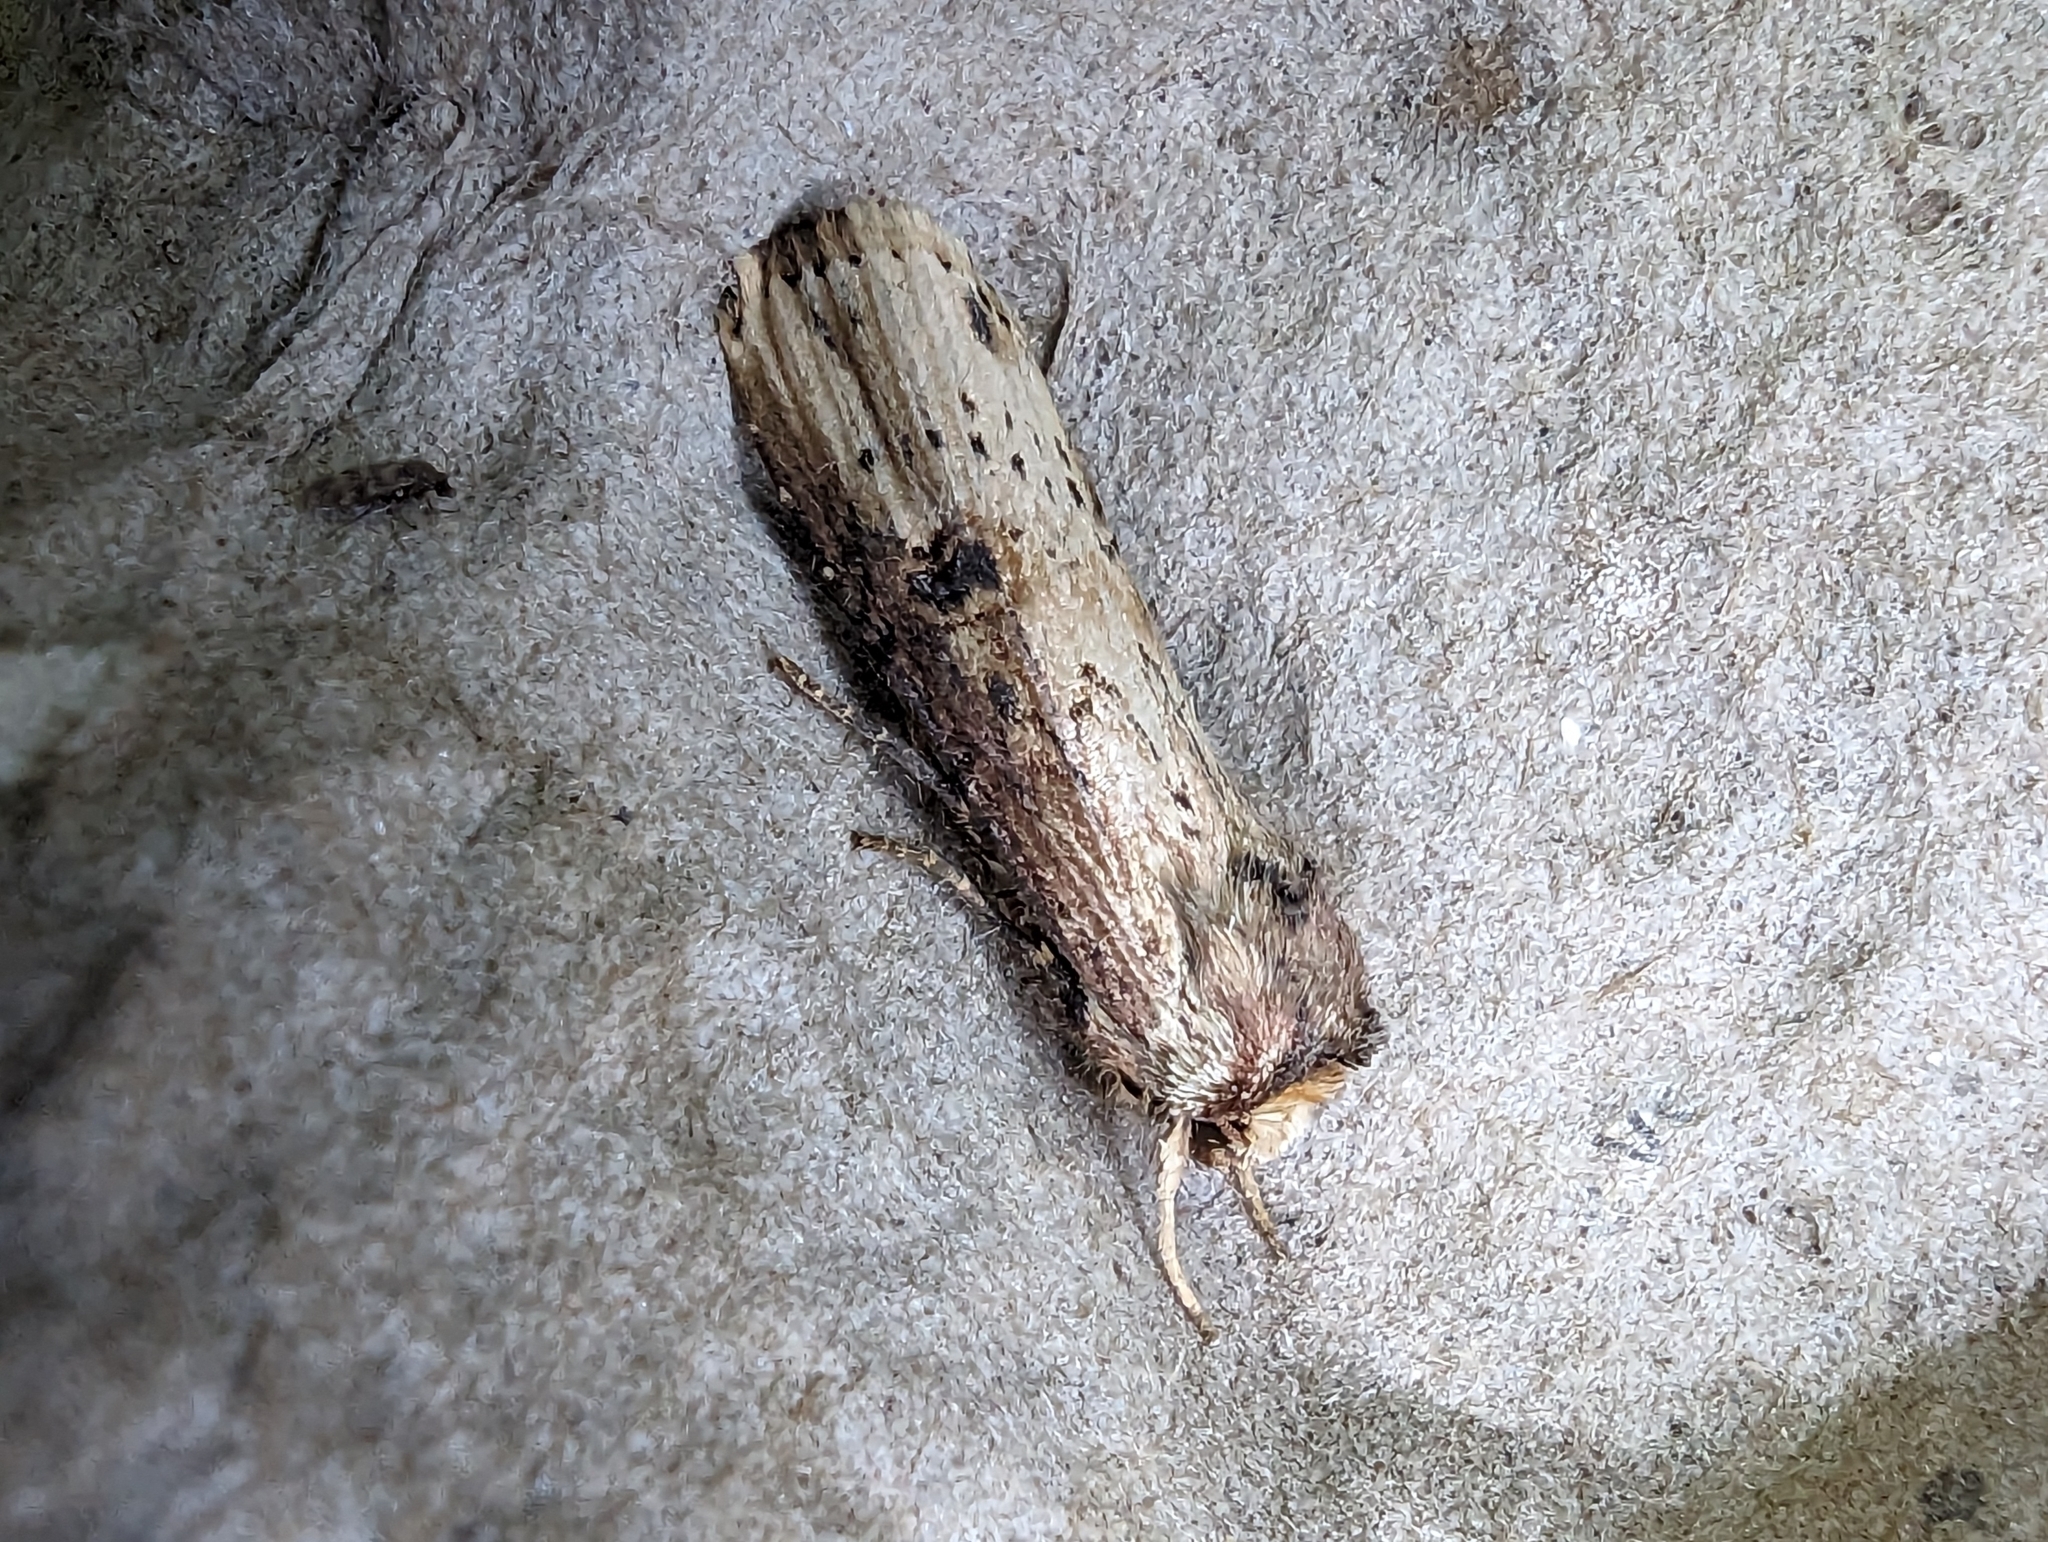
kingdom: Animalia
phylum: Arthropoda
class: Insecta
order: Lepidoptera
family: Noctuidae
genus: Axylia
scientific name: Axylia putris
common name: Flame
